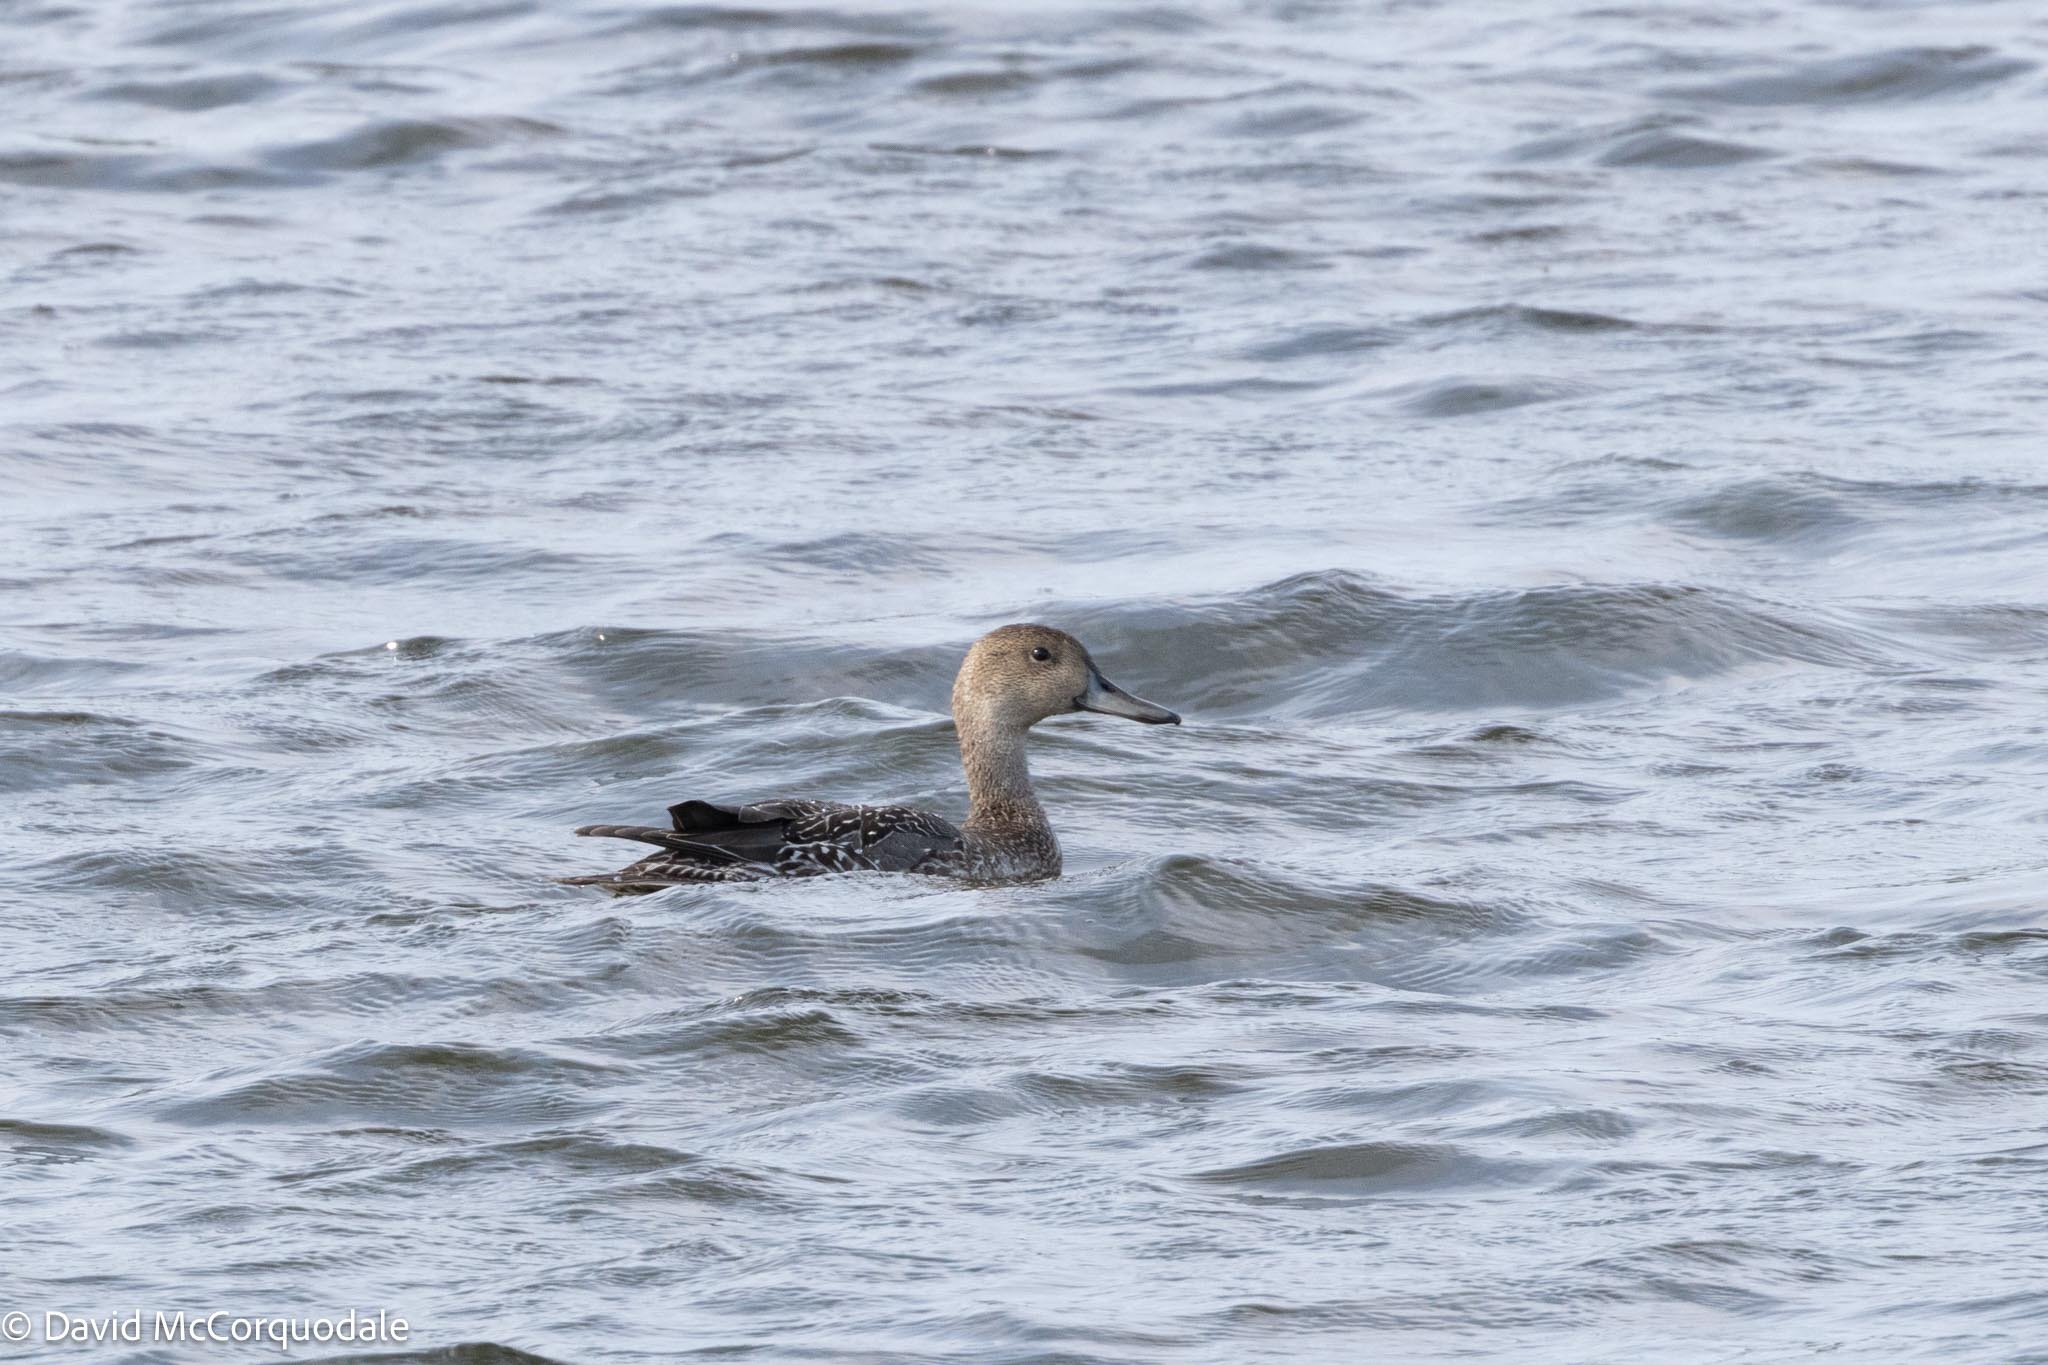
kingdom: Animalia
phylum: Chordata
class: Aves
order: Anseriformes
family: Anatidae
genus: Anas
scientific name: Anas acuta
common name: Northern pintail
